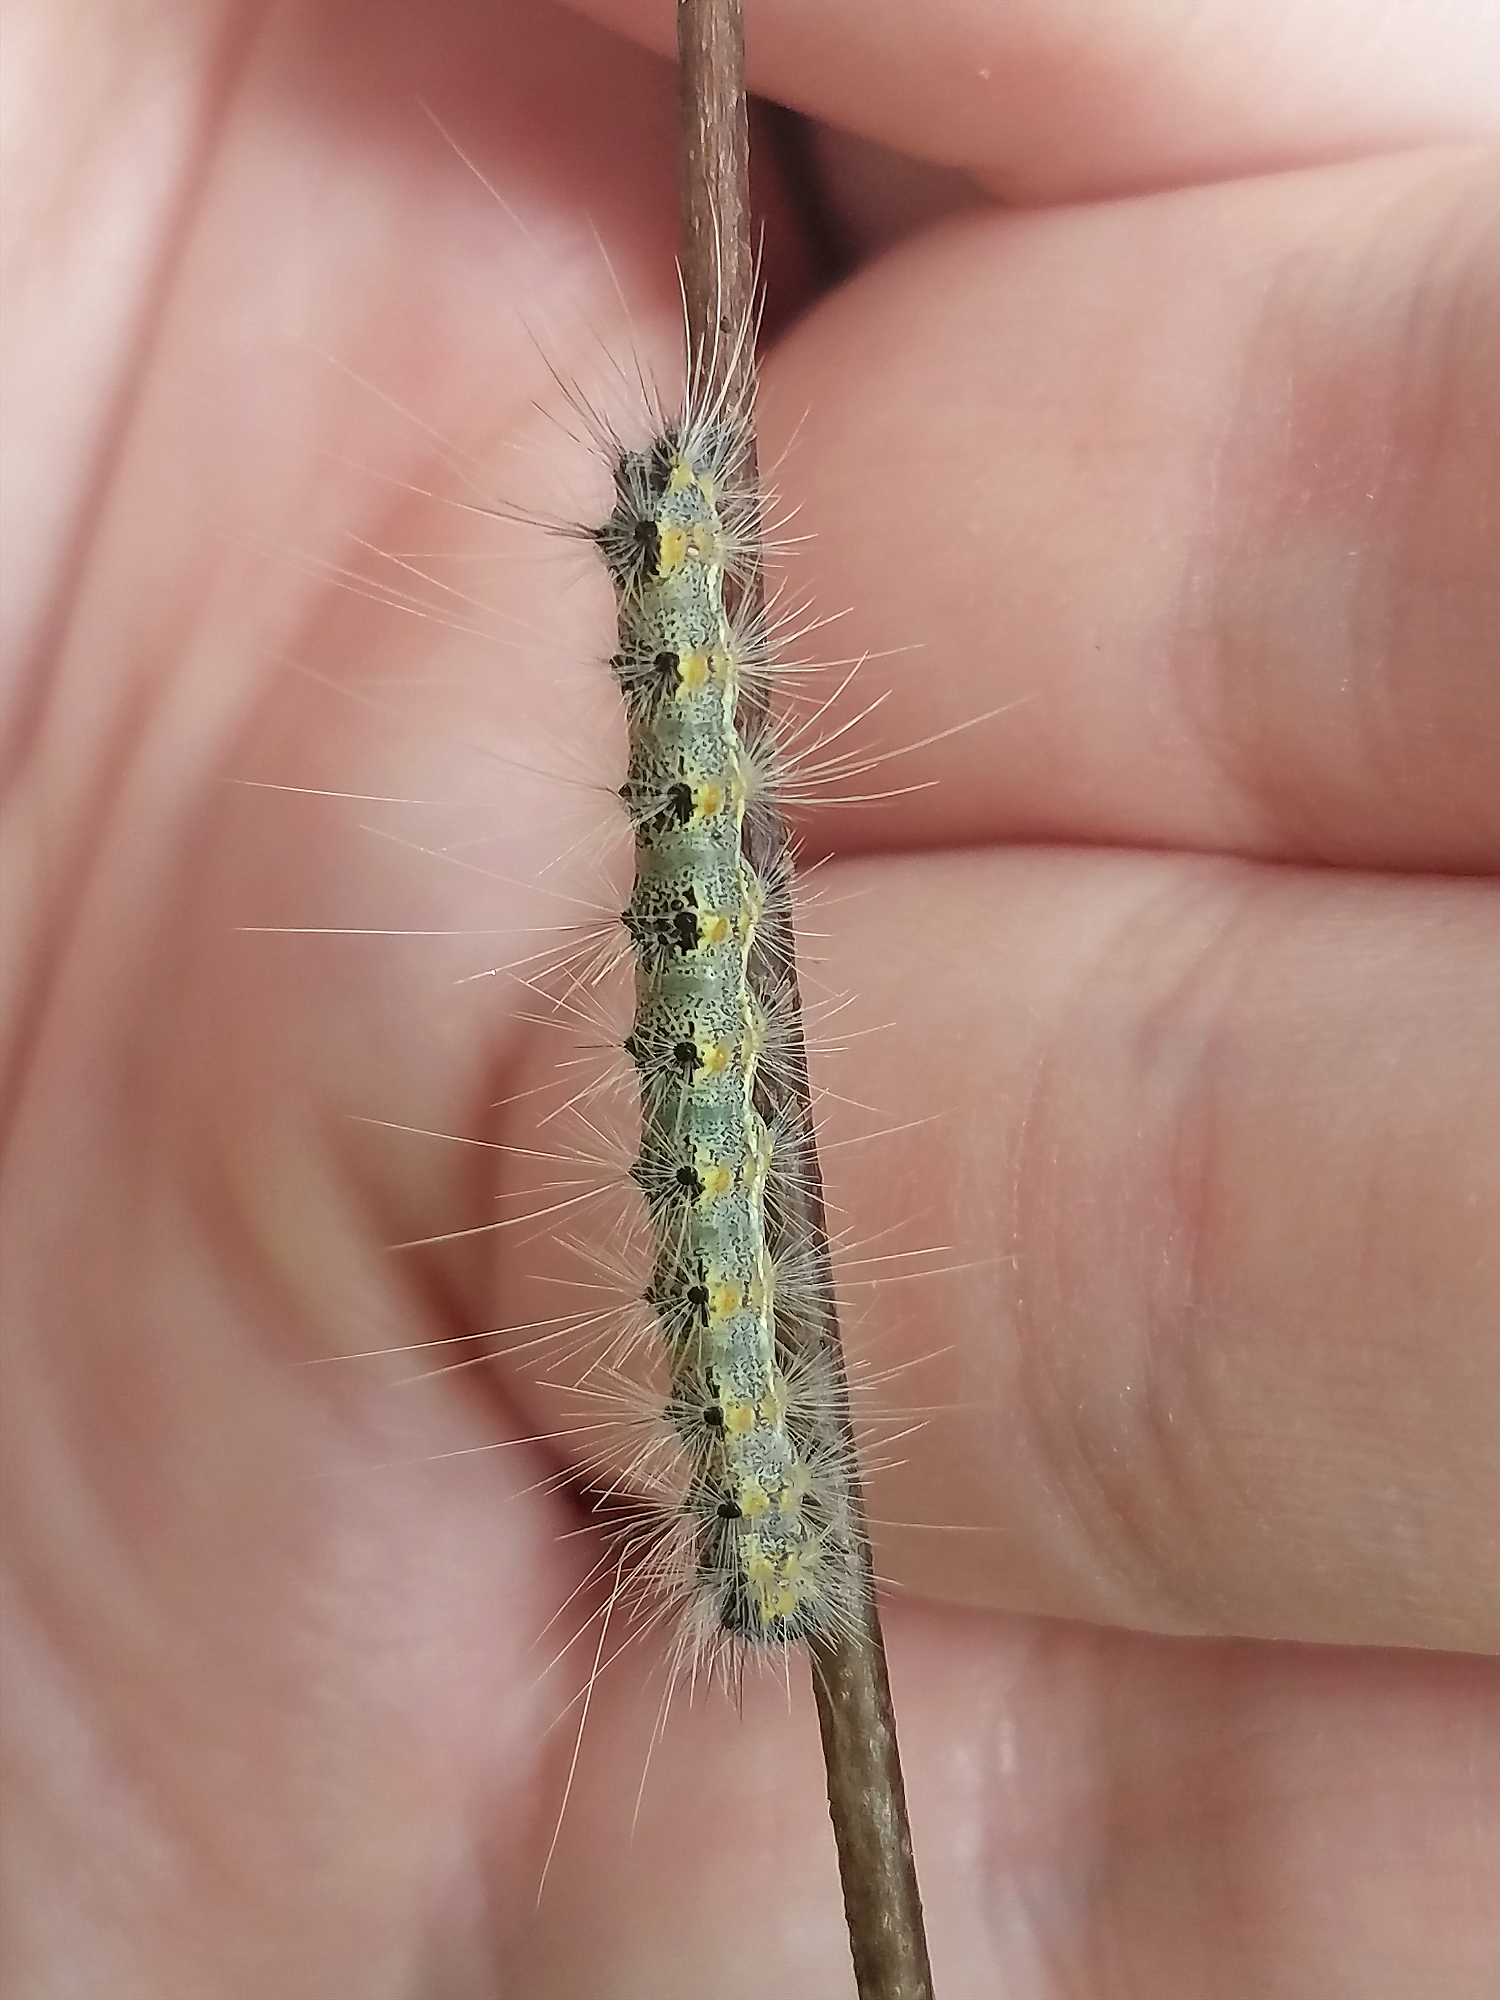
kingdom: Animalia
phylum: Arthropoda
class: Insecta
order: Lepidoptera
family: Erebidae
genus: Hyphantria
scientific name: Hyphantria cunea
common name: American white moth
